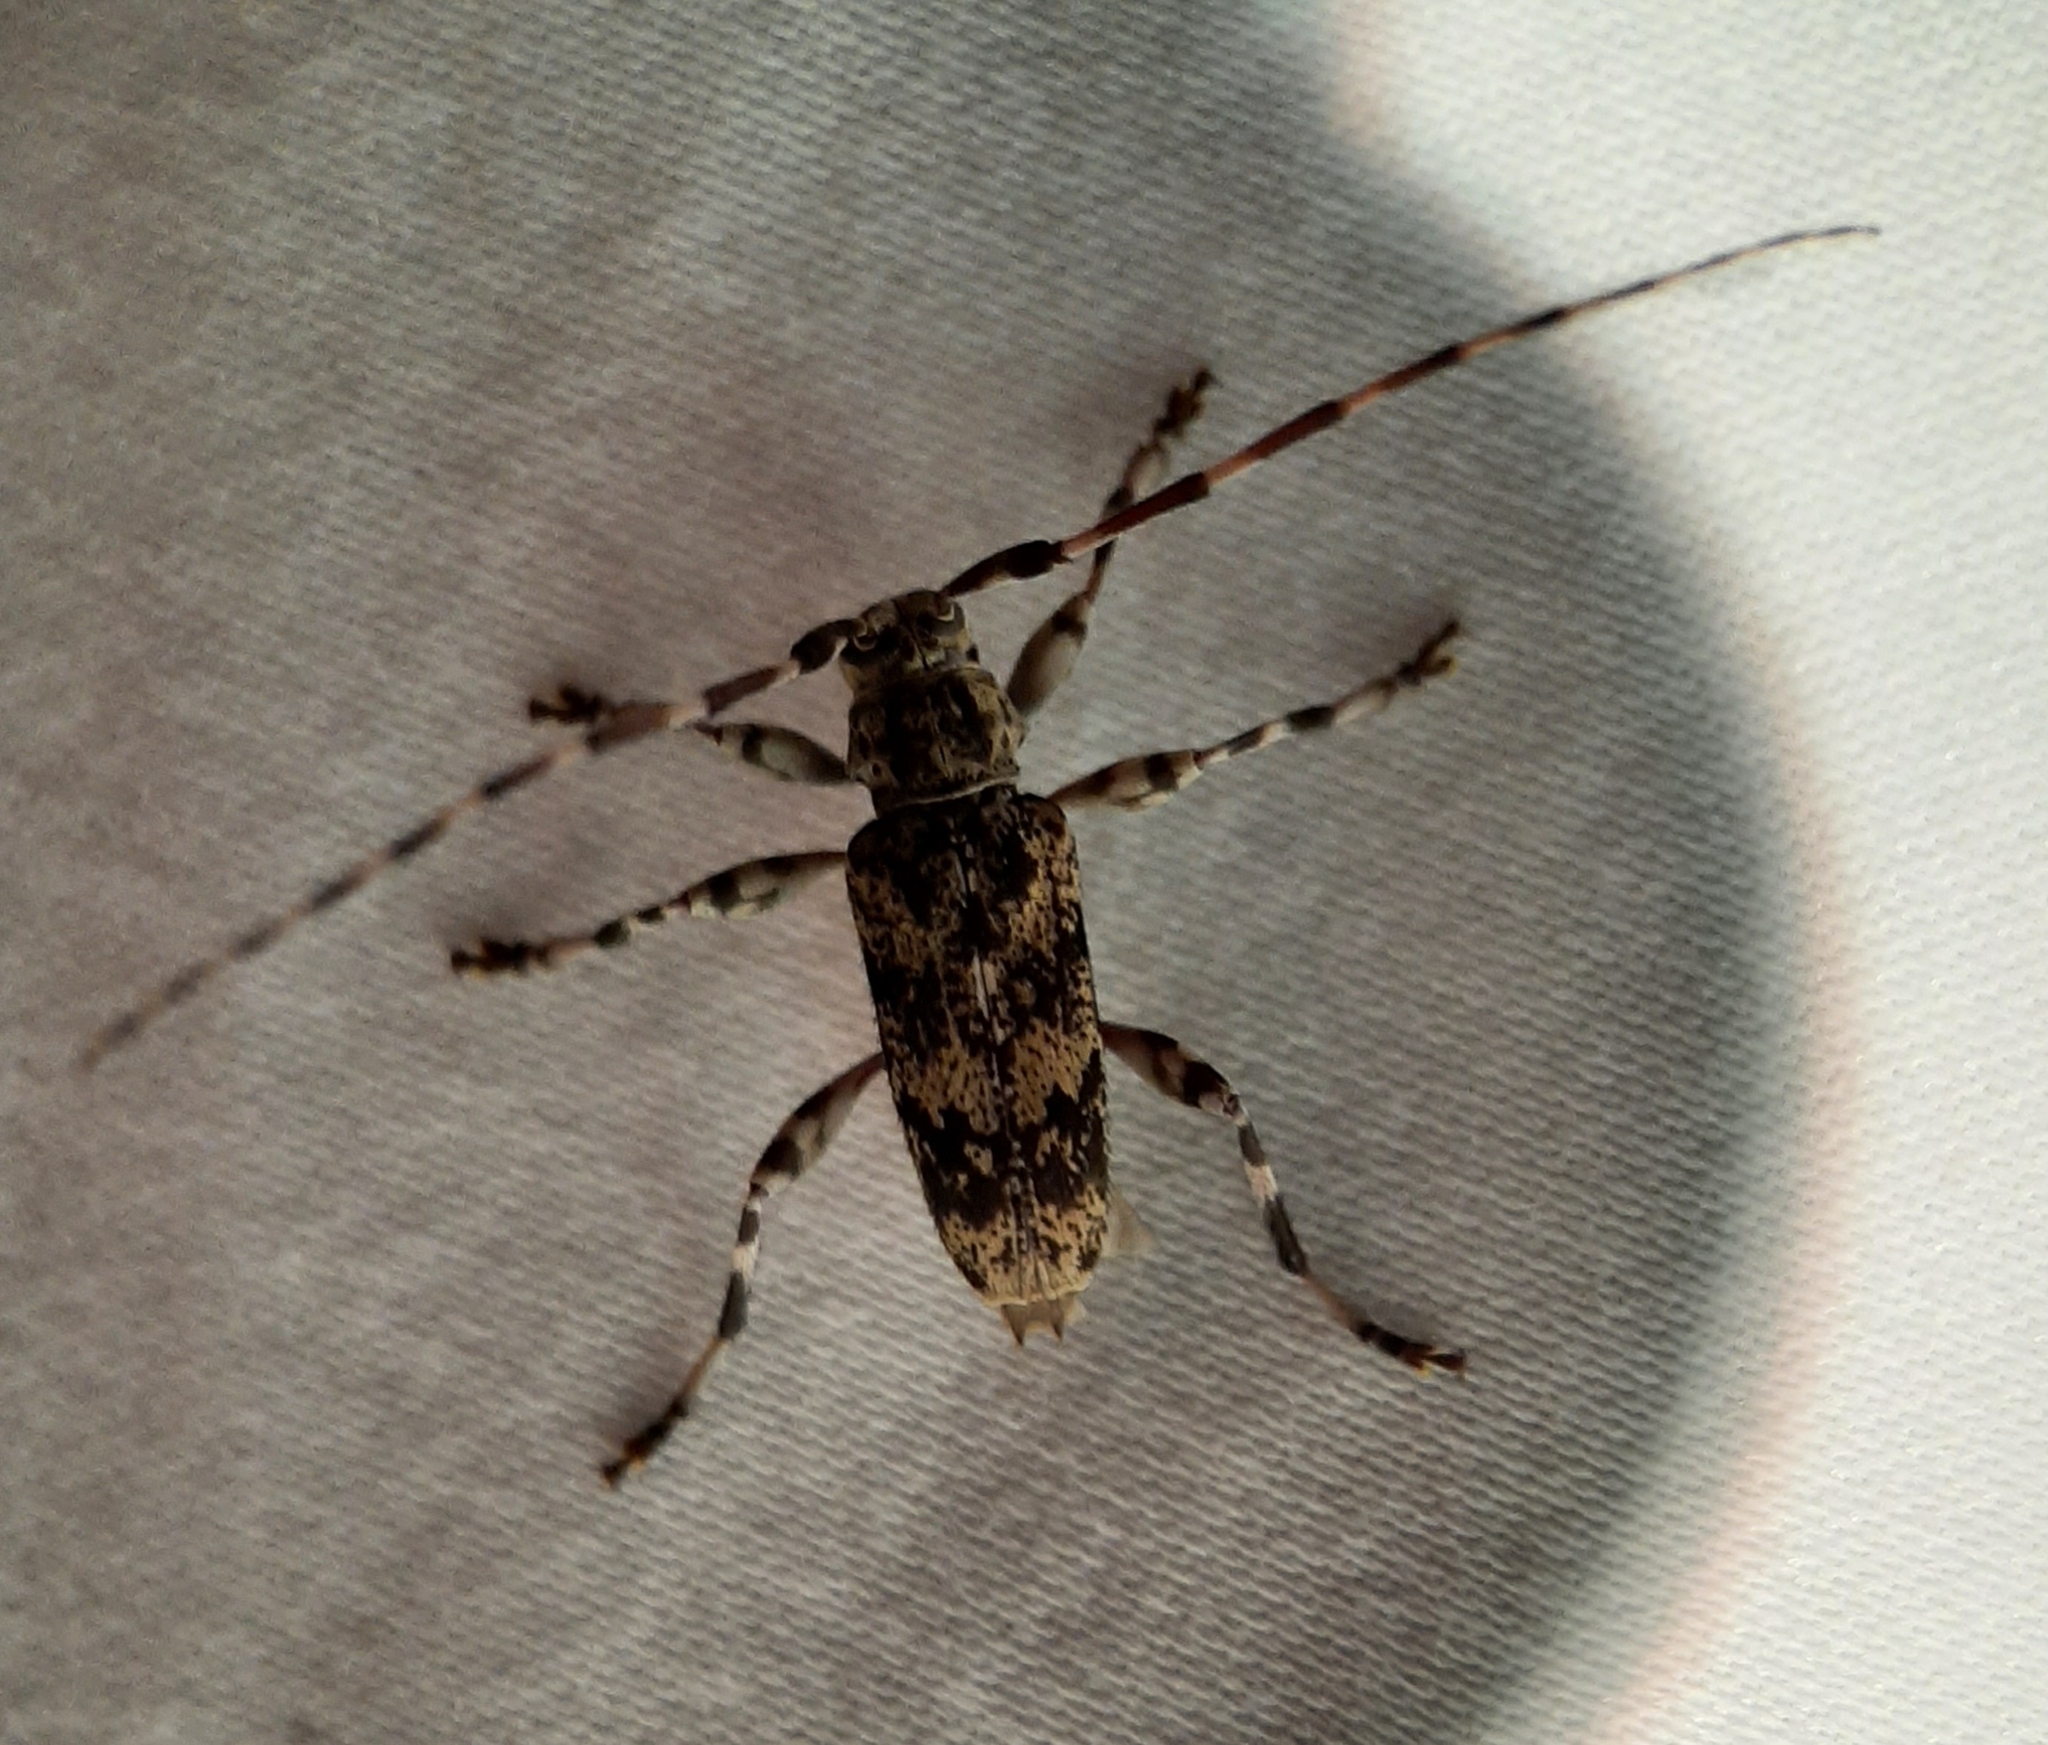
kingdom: Animalia
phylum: Arthropoda
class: Insecta
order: Coleoptera
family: Cerambycidae
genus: Graphisurus
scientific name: Graphisurus fasciatus
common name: Banded graphisurus
